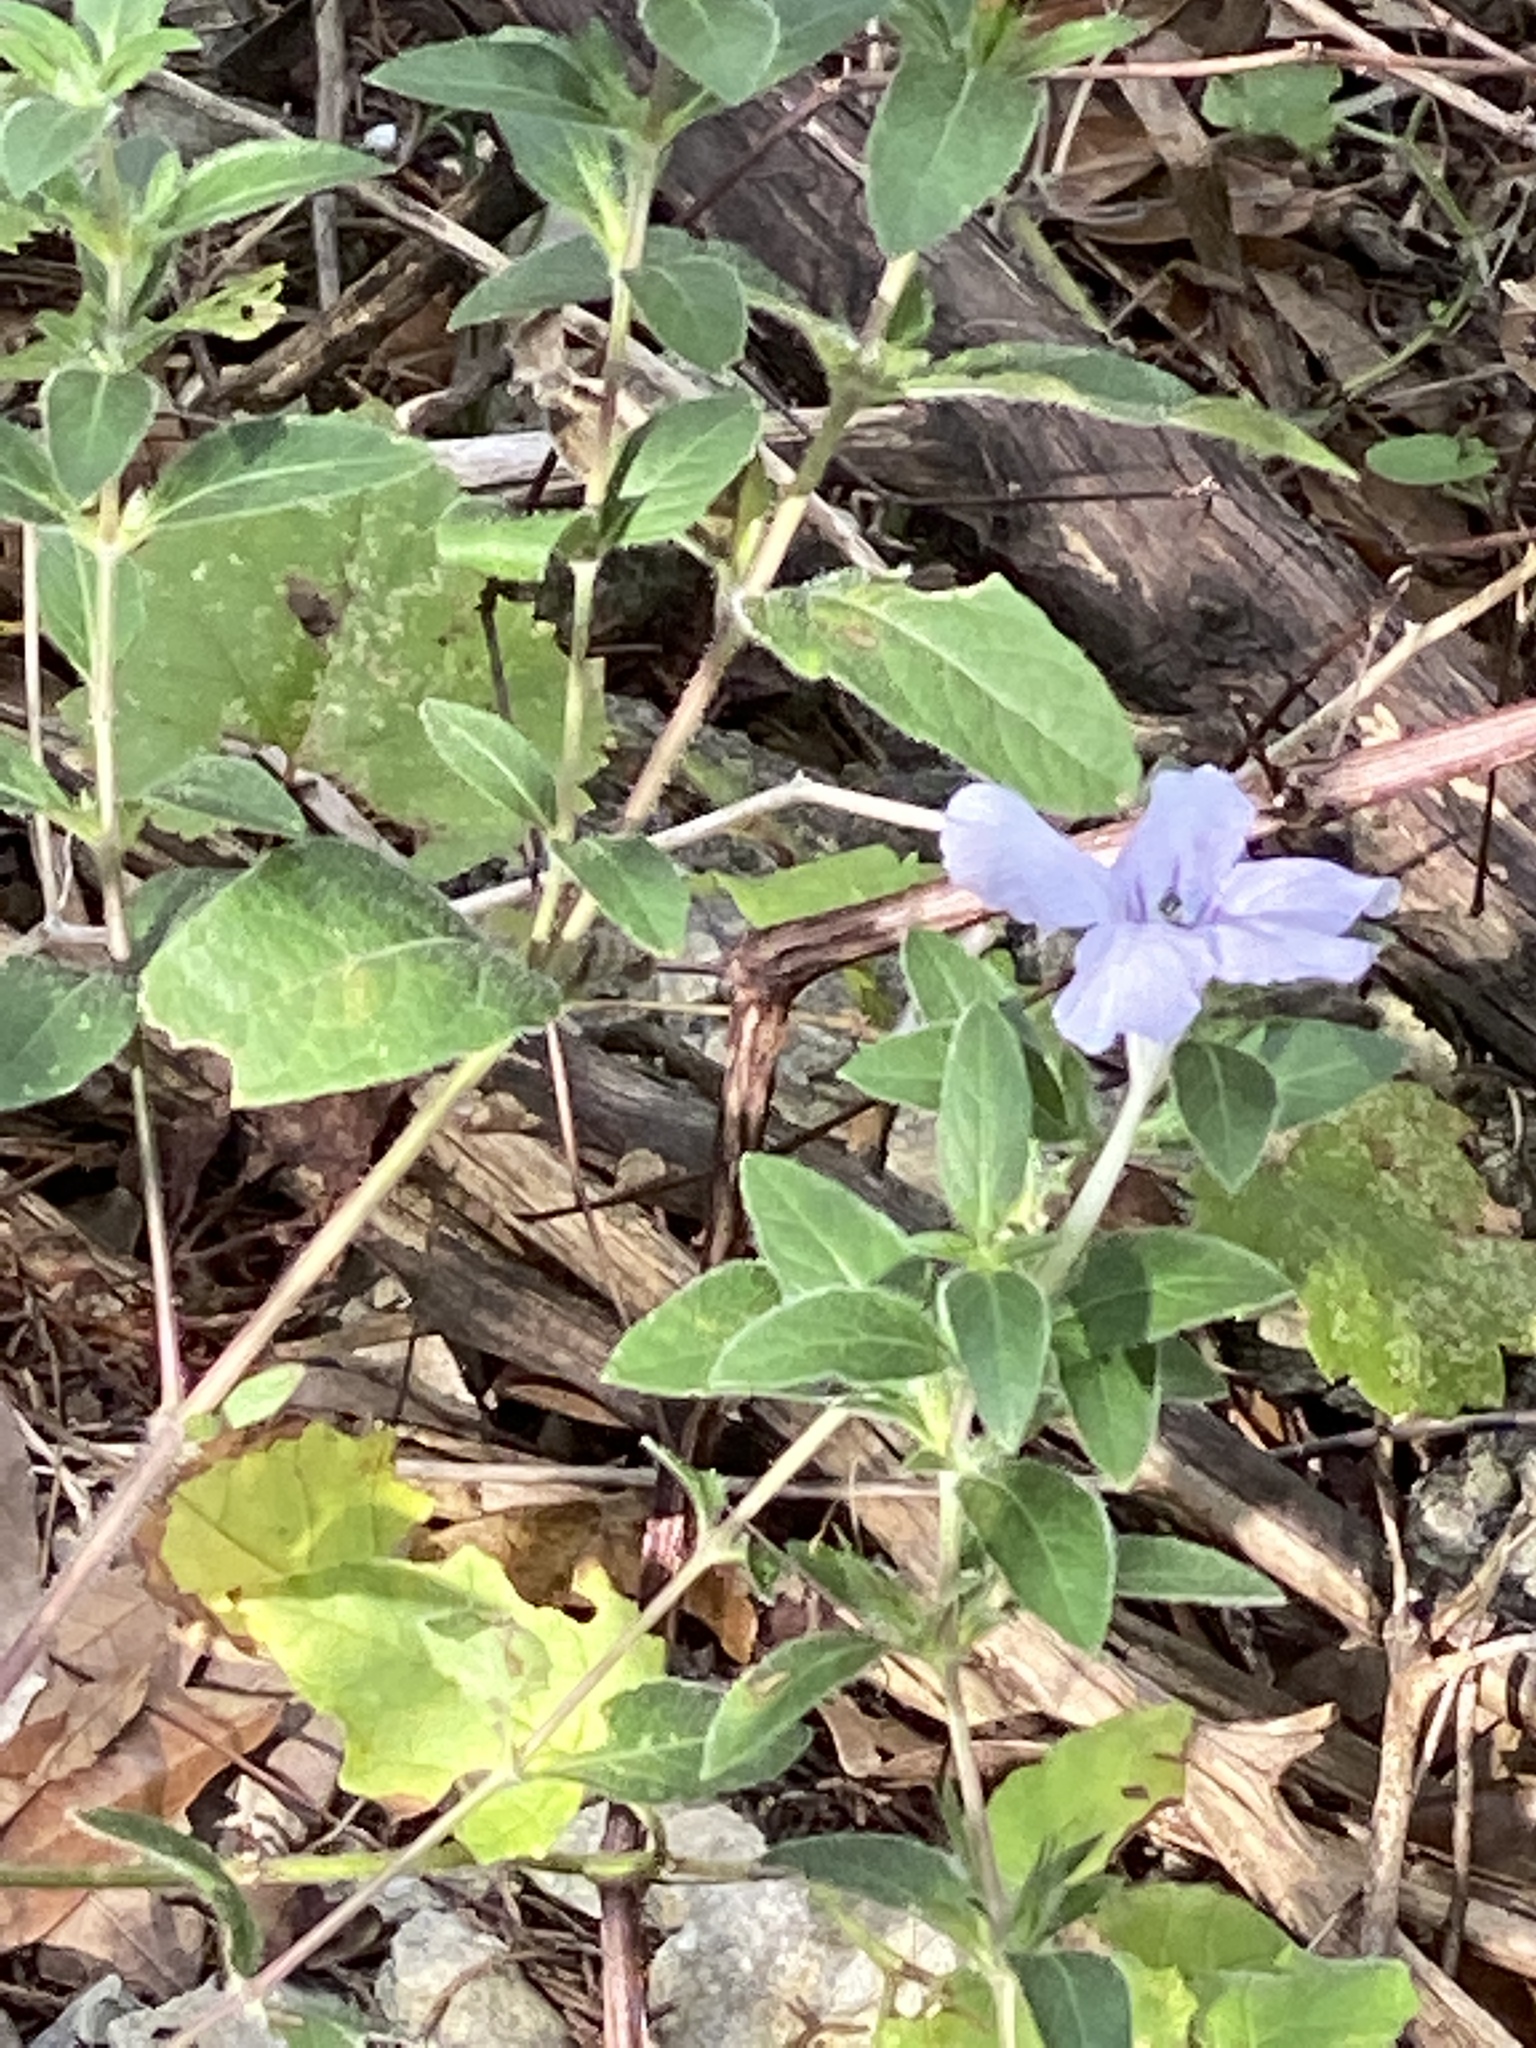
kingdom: Plantae
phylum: Tracheophyta
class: Magnoliopsida
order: Lamiales
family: Acanthaceae
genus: Ruellia
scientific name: Ruellia humilis
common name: Fringe-leaf ruellia
